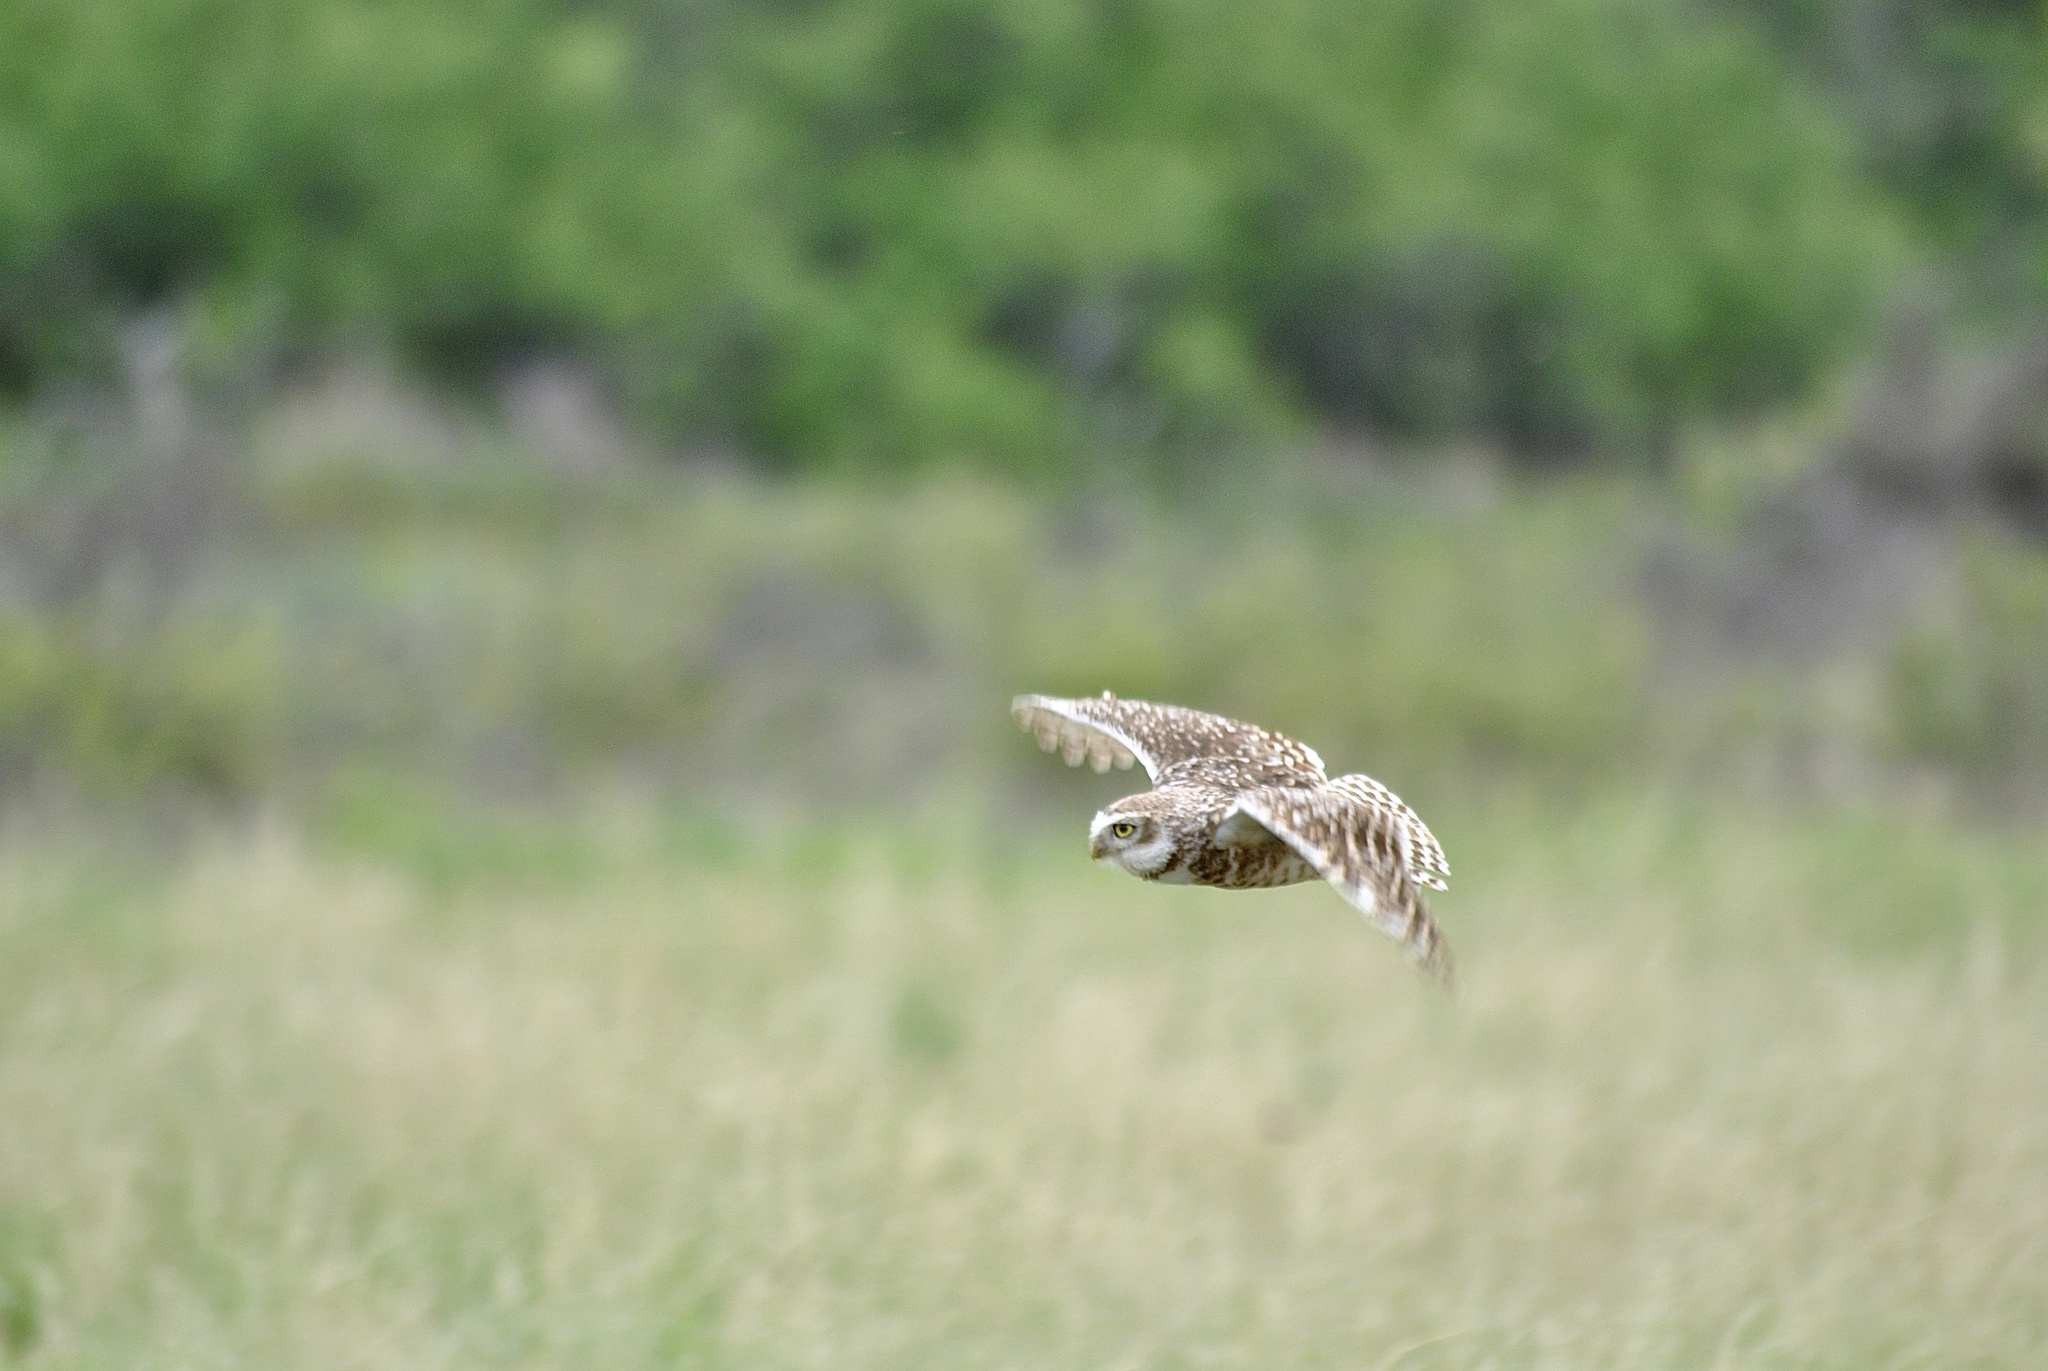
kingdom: Animalia
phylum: Chordata
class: Aves
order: Strigiformes
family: Strigidae
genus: Athene
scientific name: Athene cunicularia
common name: Burrowing owl
